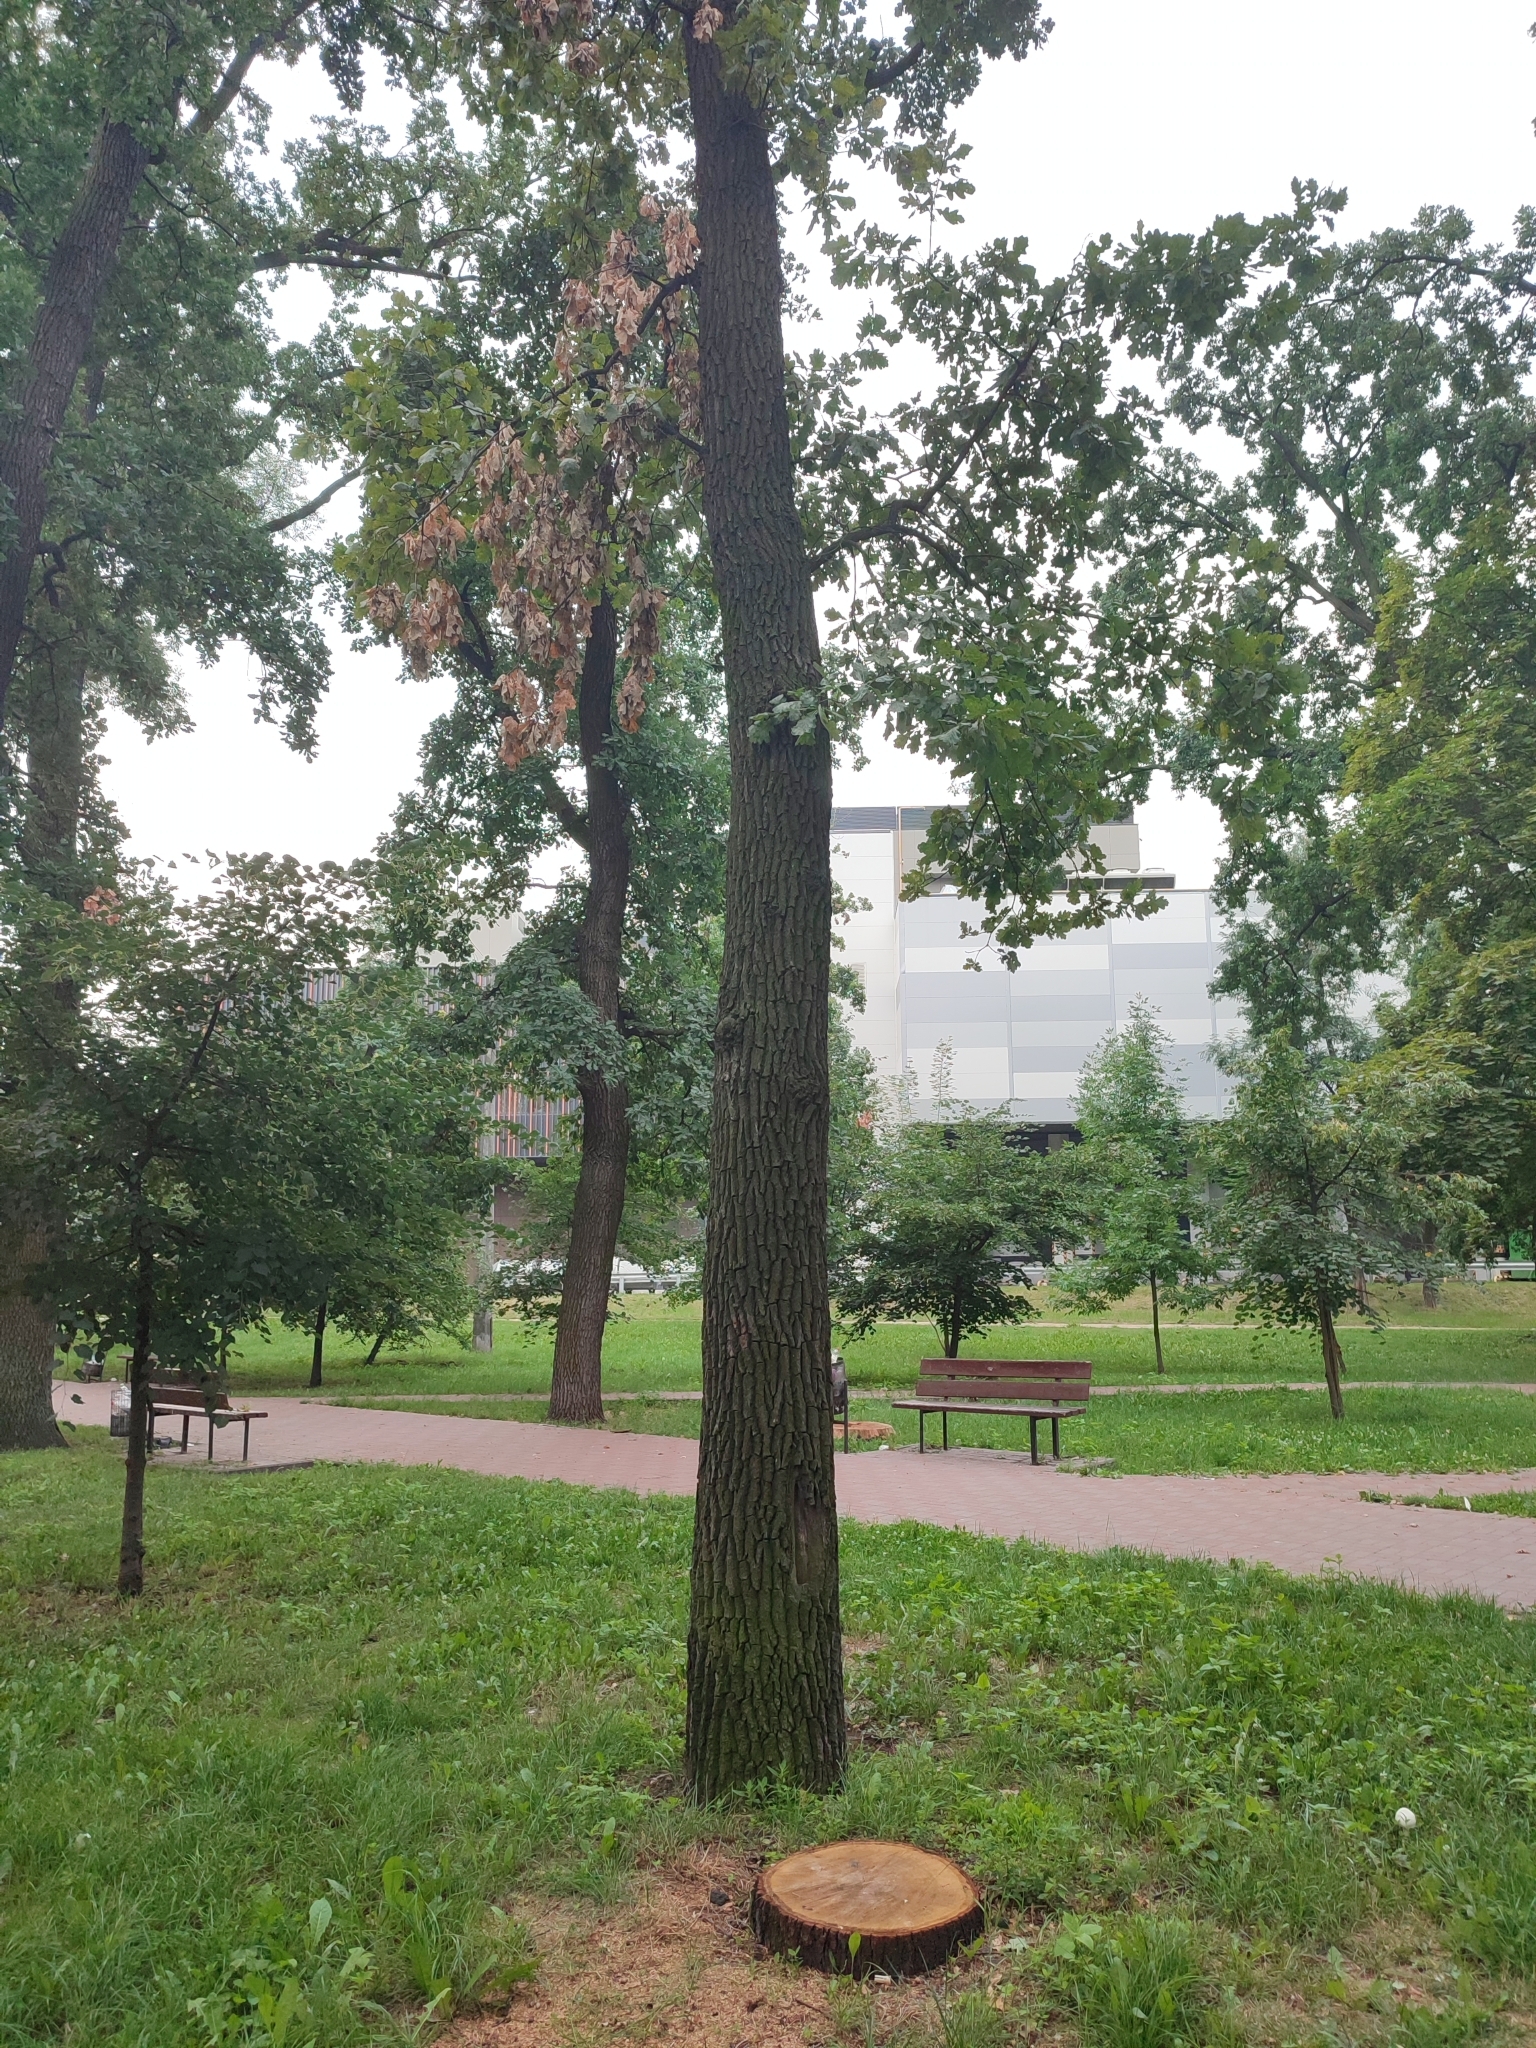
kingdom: Plantae
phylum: Tracheophyta
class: Magnoliopsida
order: Fagales
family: Fagaceae
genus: Quercus
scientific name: Quercus robur
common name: Pedunculate oak
